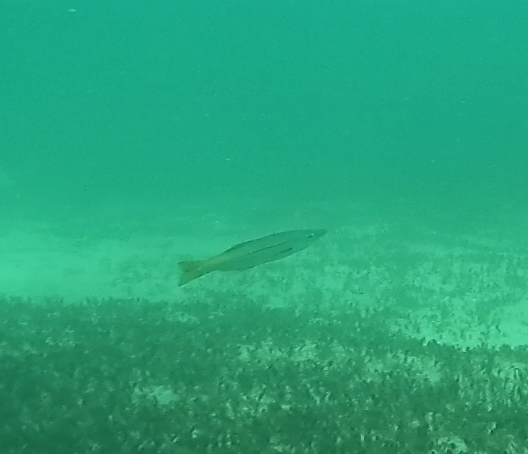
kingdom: Animalia
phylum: Chordata
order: Perciformes
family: Dinolestidae
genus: Dinolestes
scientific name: Dinolestes lewini
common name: Jack pike
